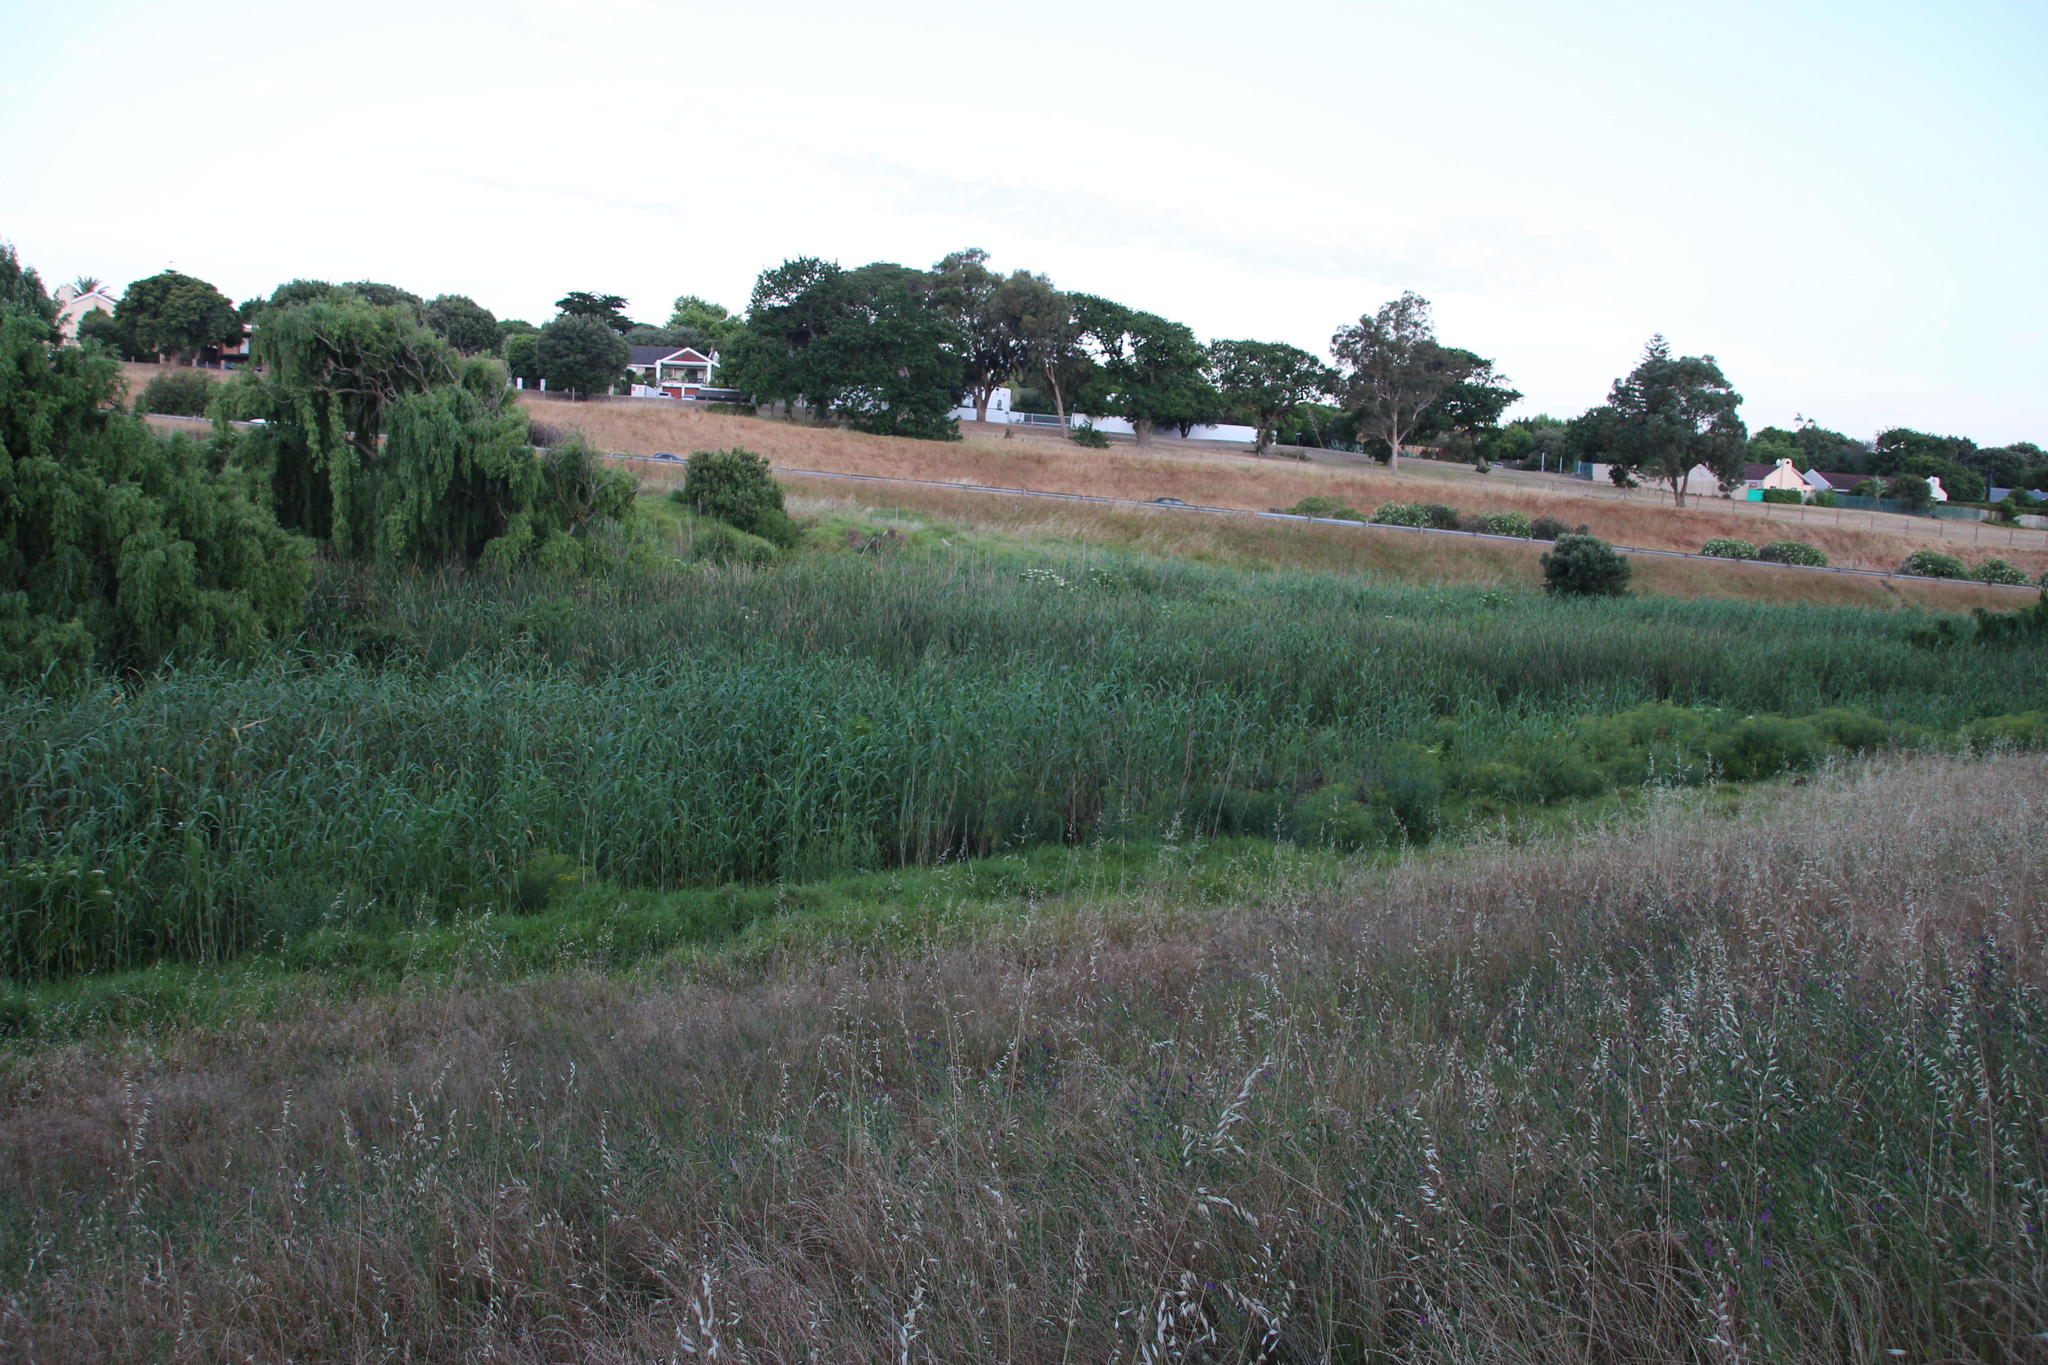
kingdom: Plantae
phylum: Tracheophyta
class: Liliopsida
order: Poales
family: Poaceae
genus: Phragmites
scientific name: Phragmites australis
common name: Common reed
